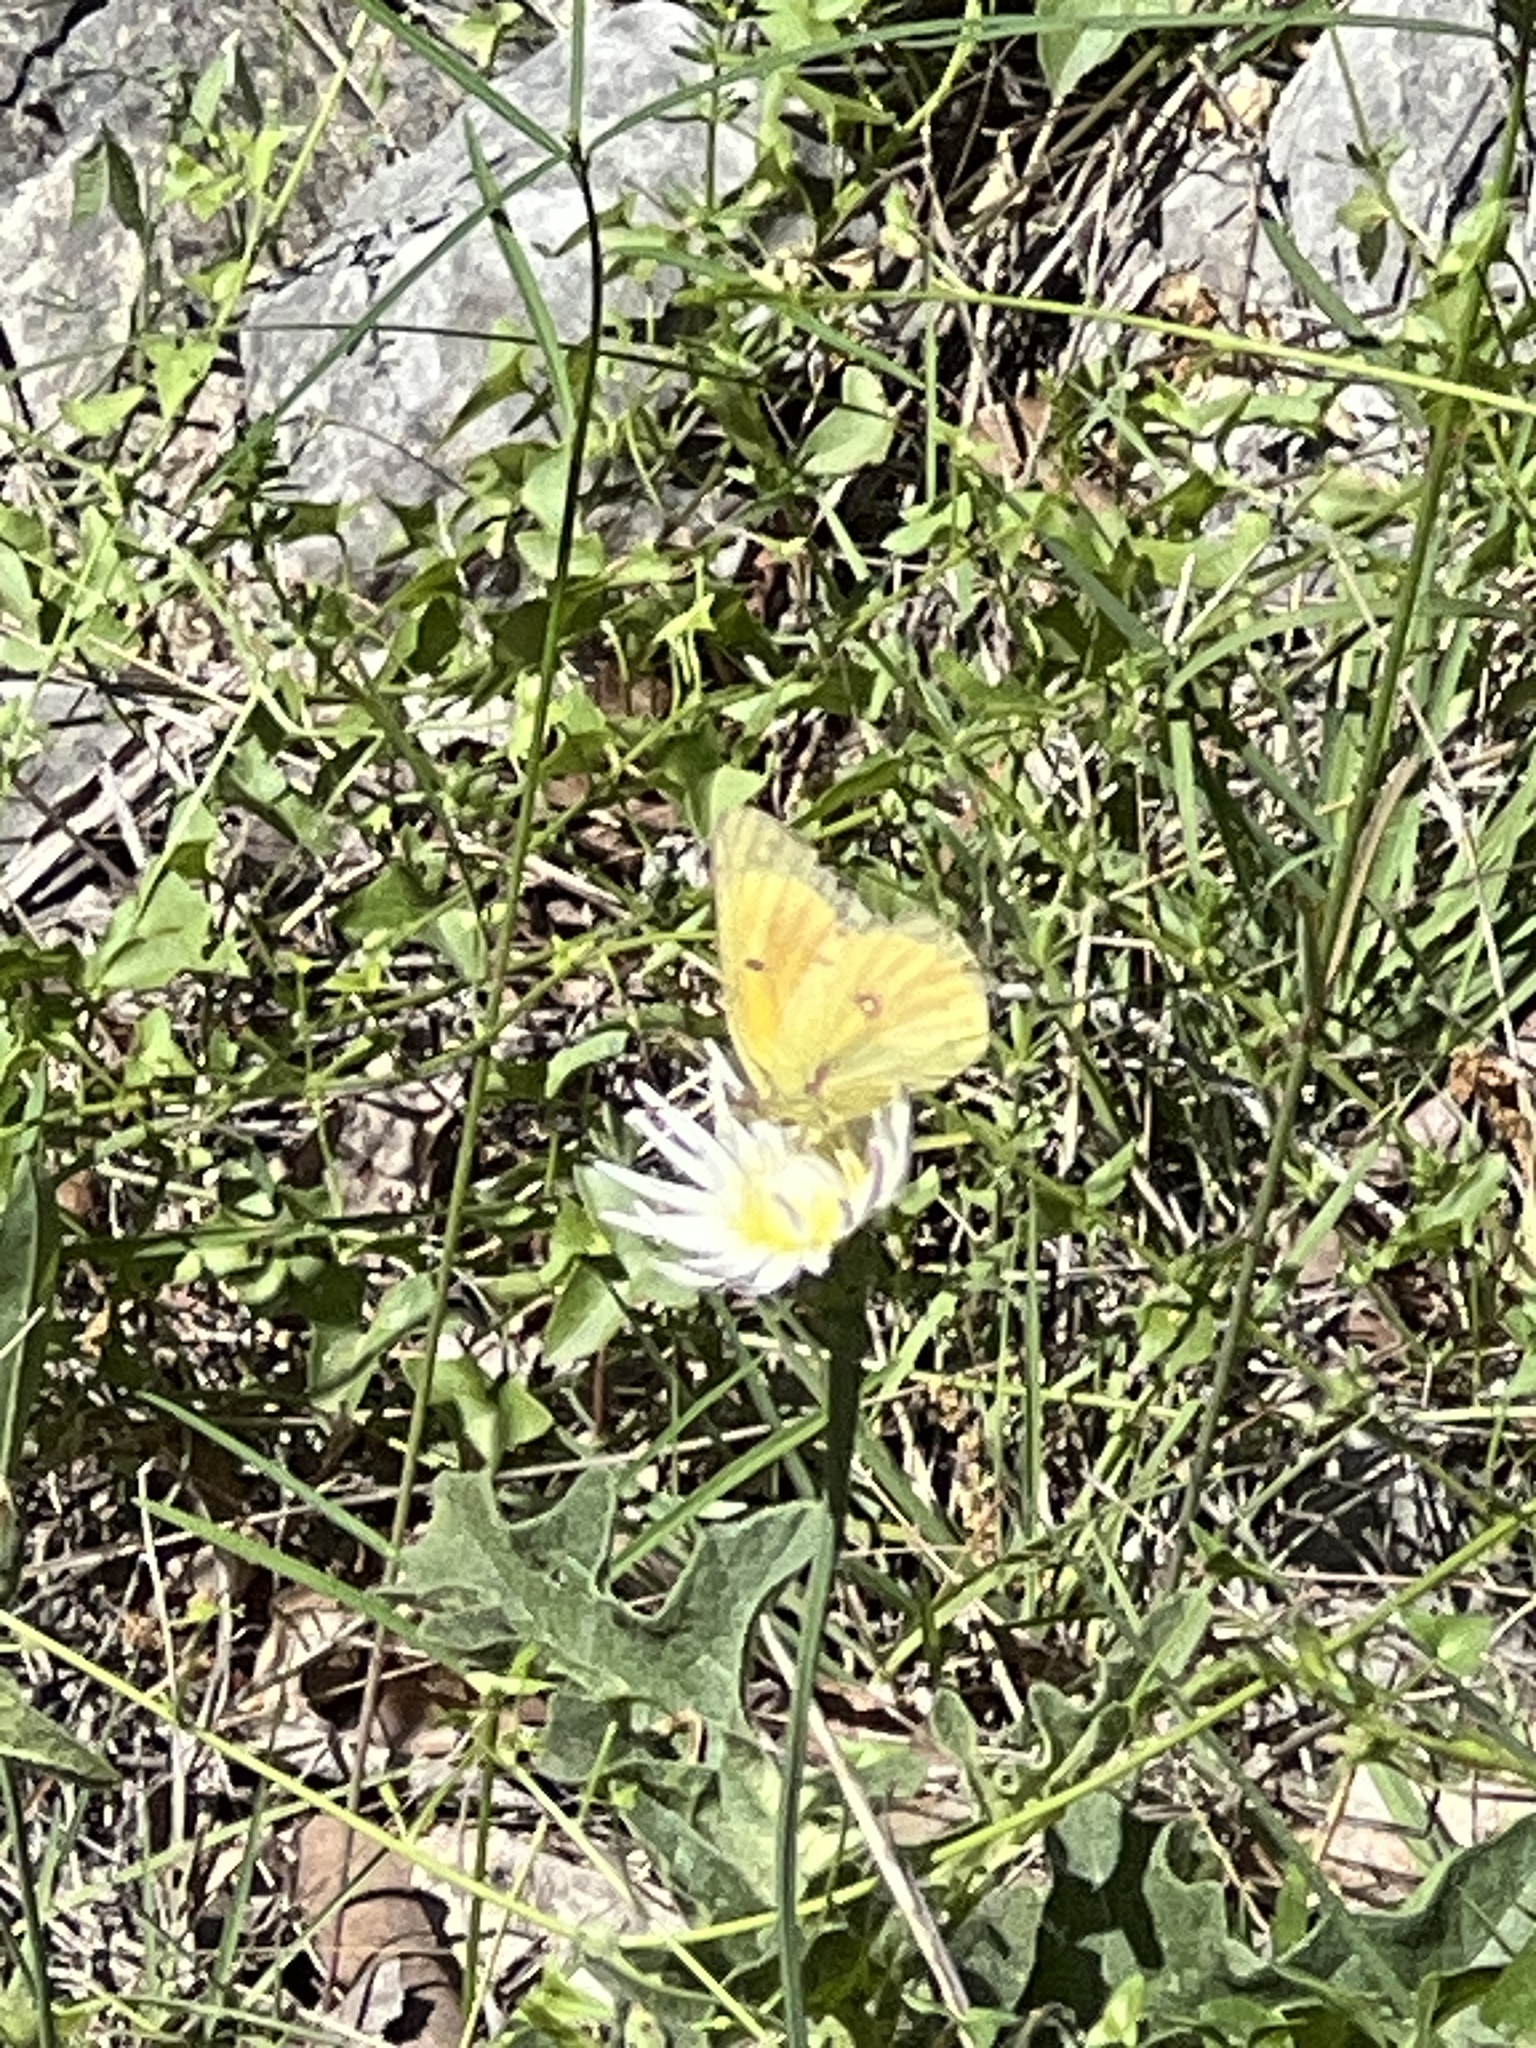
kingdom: Animalia
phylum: Arthropoda
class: Insecta
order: Lepidoptera
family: Pieridae
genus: Colias
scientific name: Colias eurytheme
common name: Alfalfa butterfly
